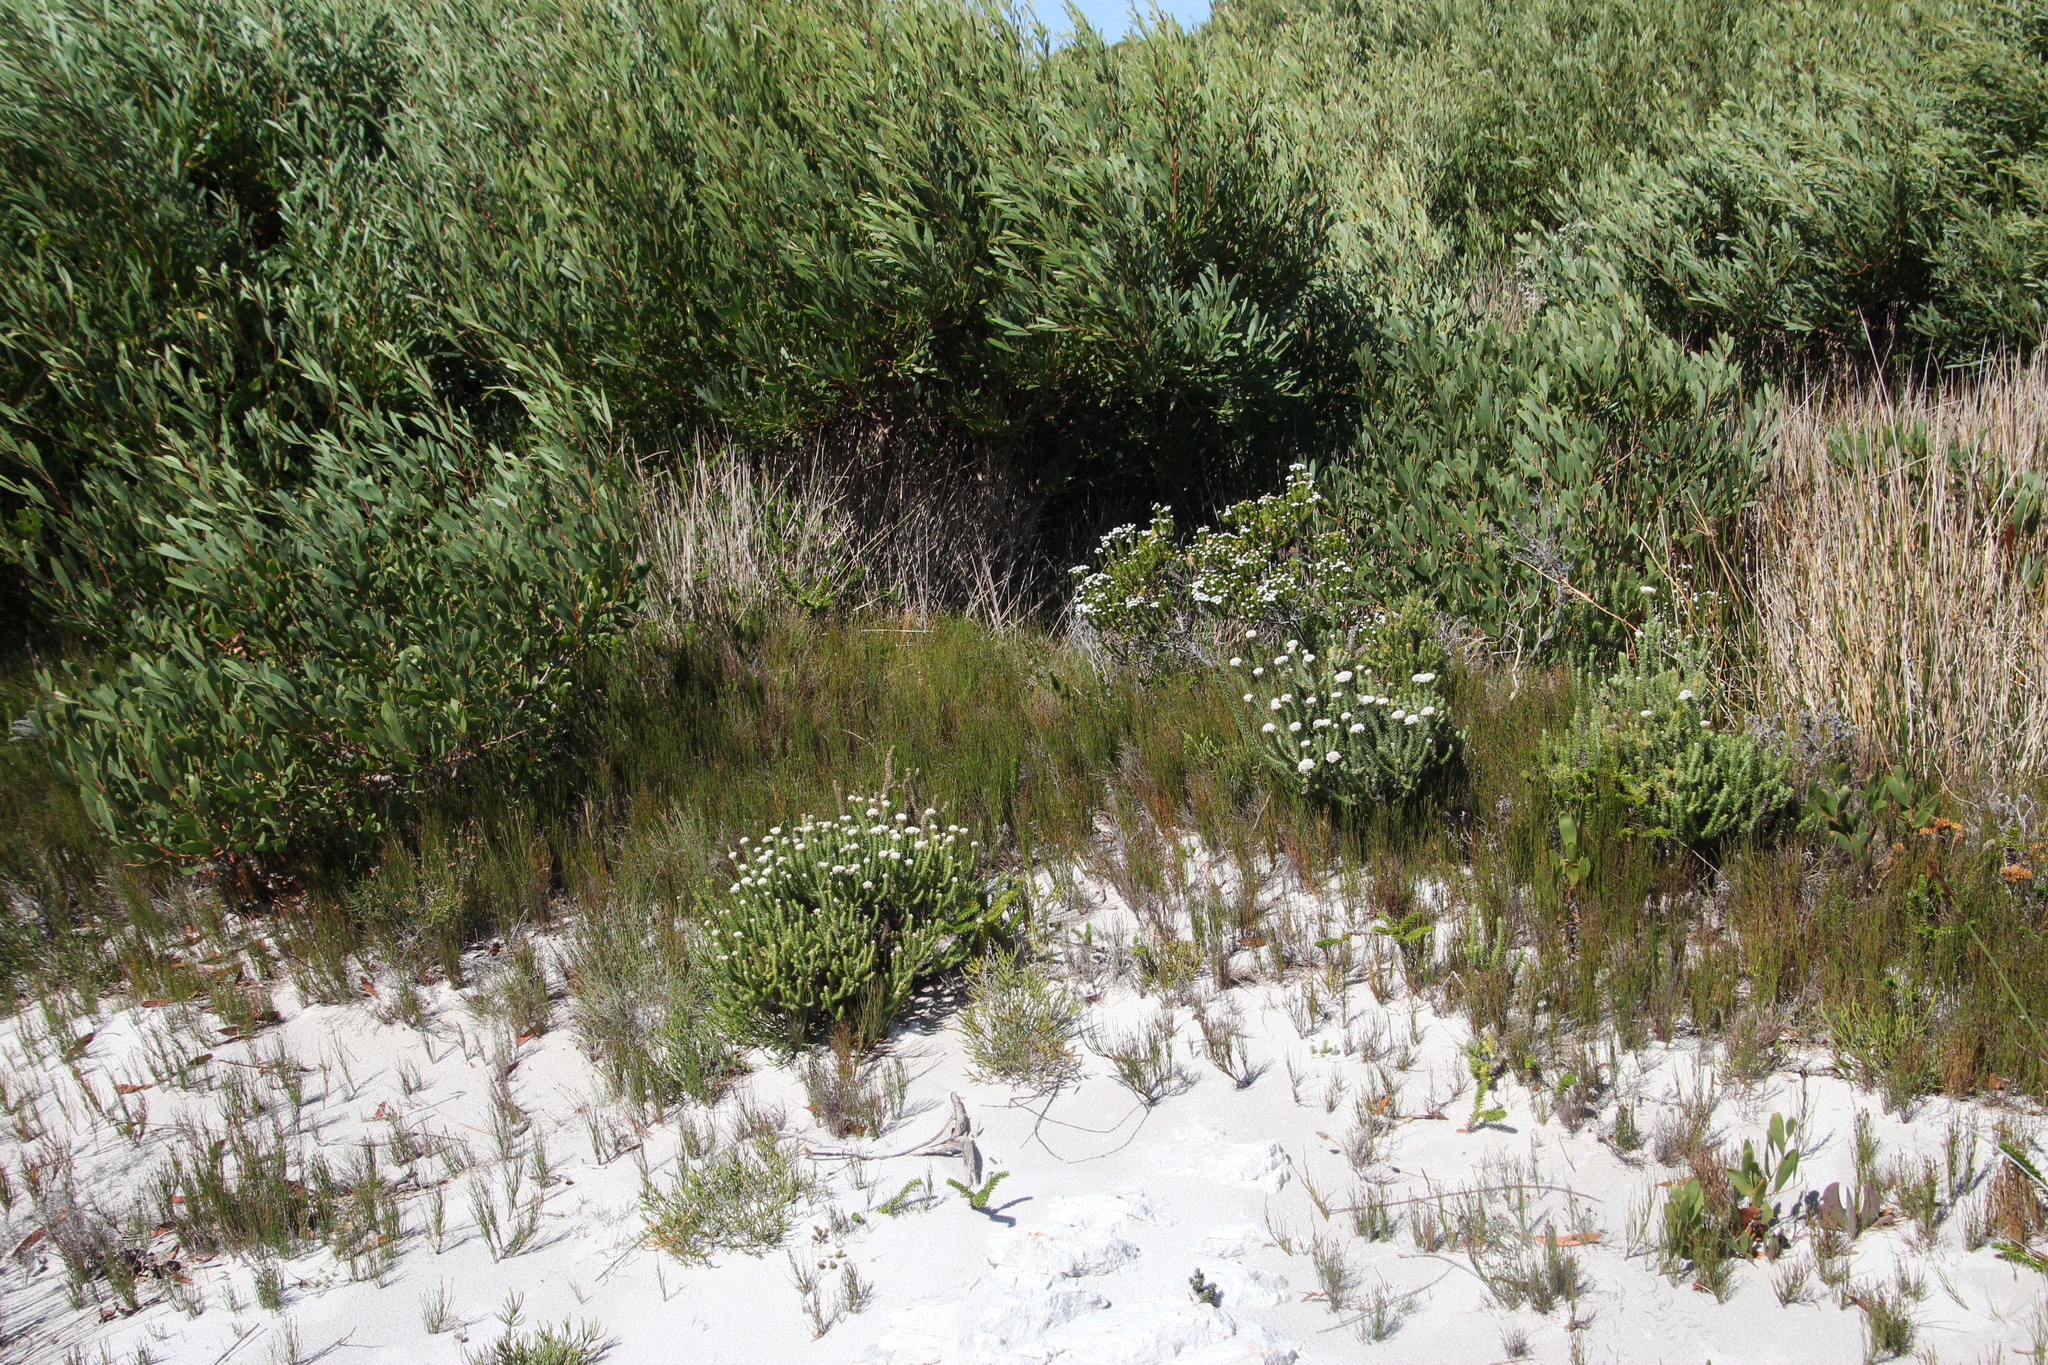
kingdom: Plantae
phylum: Tracheophyta
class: Magnoliopsida
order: Fabales
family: Fabaceae
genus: Acacia
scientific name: Acacia cyclops
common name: Coastal wattle
